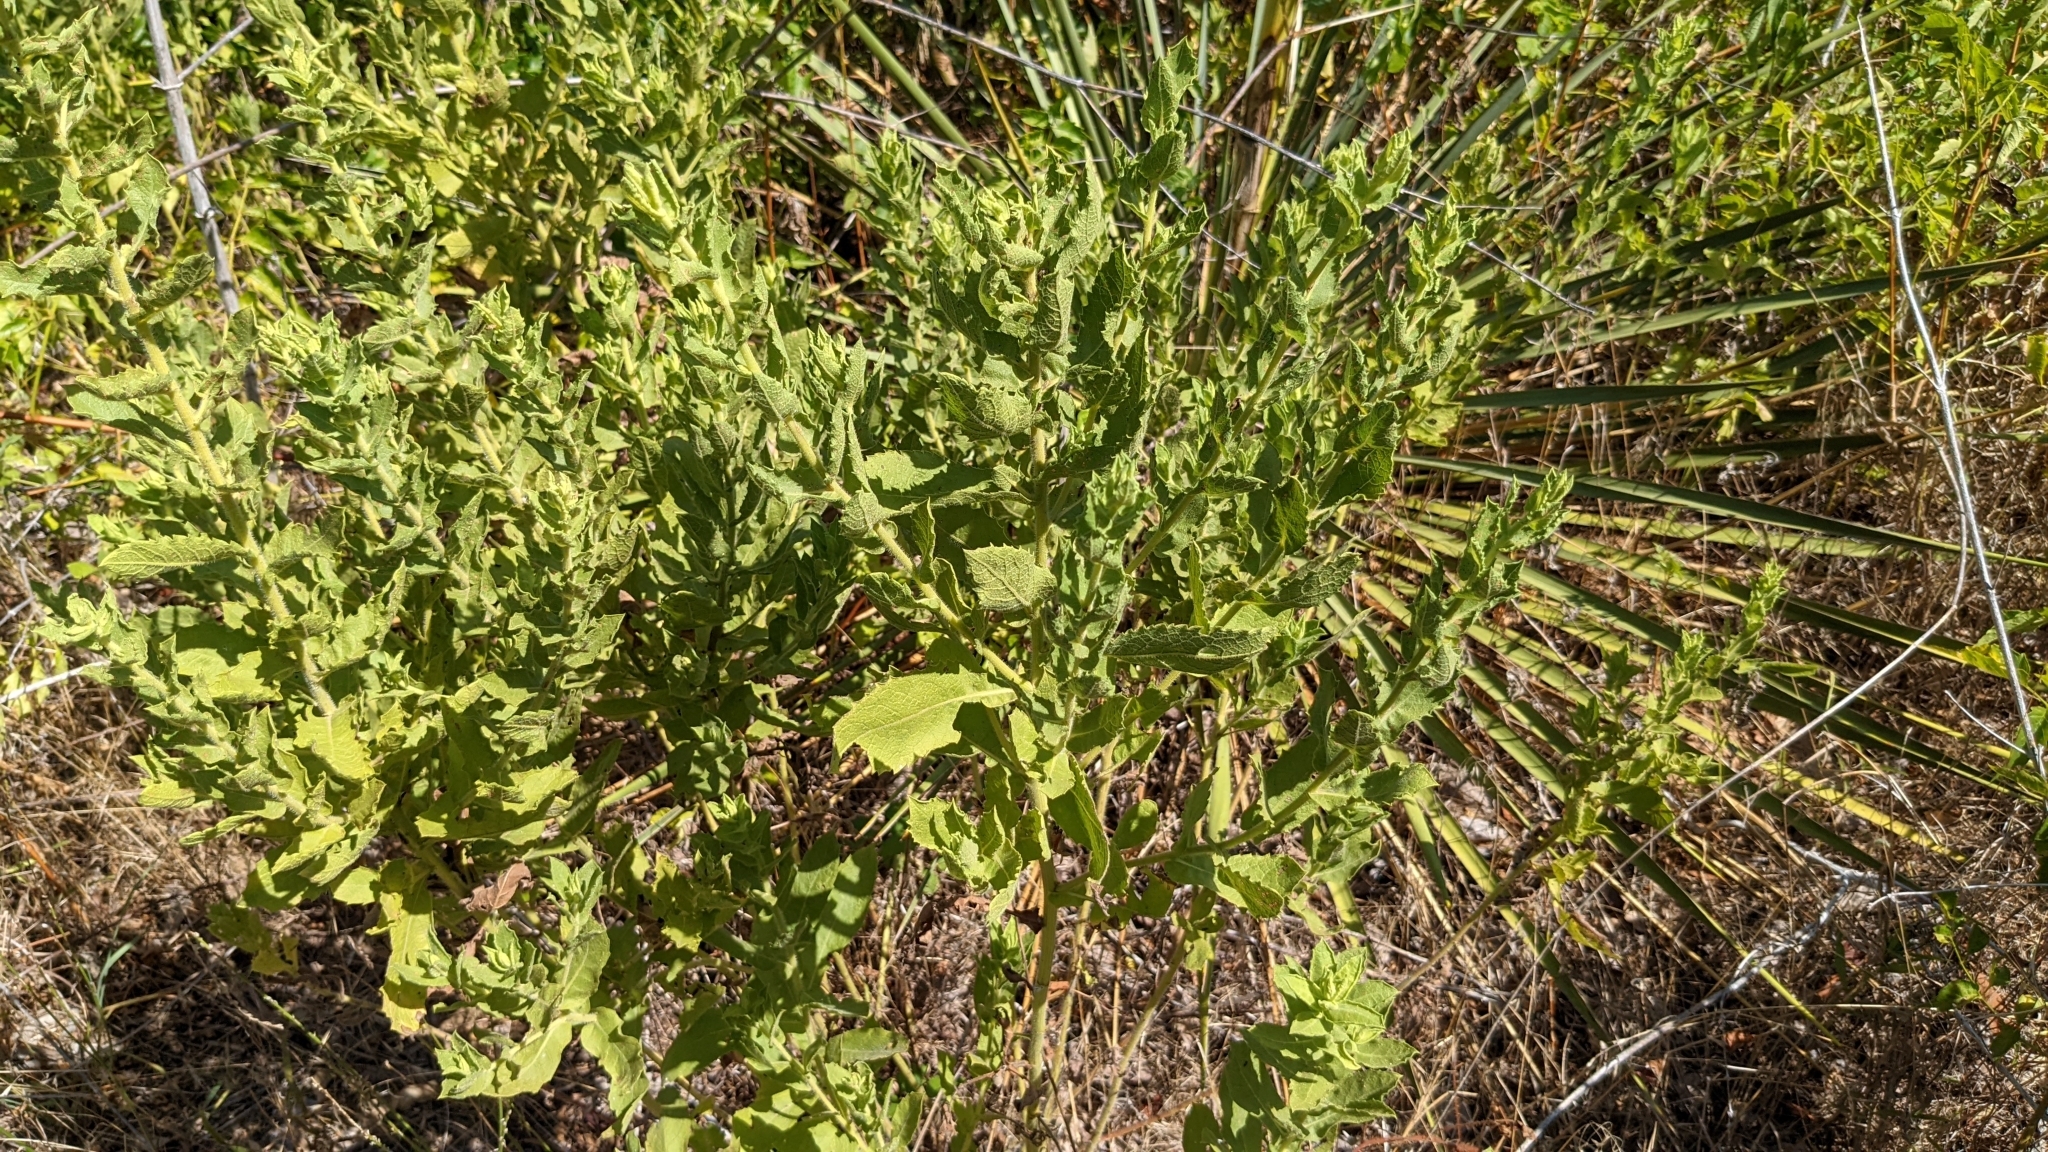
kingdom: Plantae
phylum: Tracheophyta
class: Magnoliopsida
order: Asterales
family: Asteraceae
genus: Heterotheca
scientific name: Heterotheca subaxillaris
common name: Camphorweed
